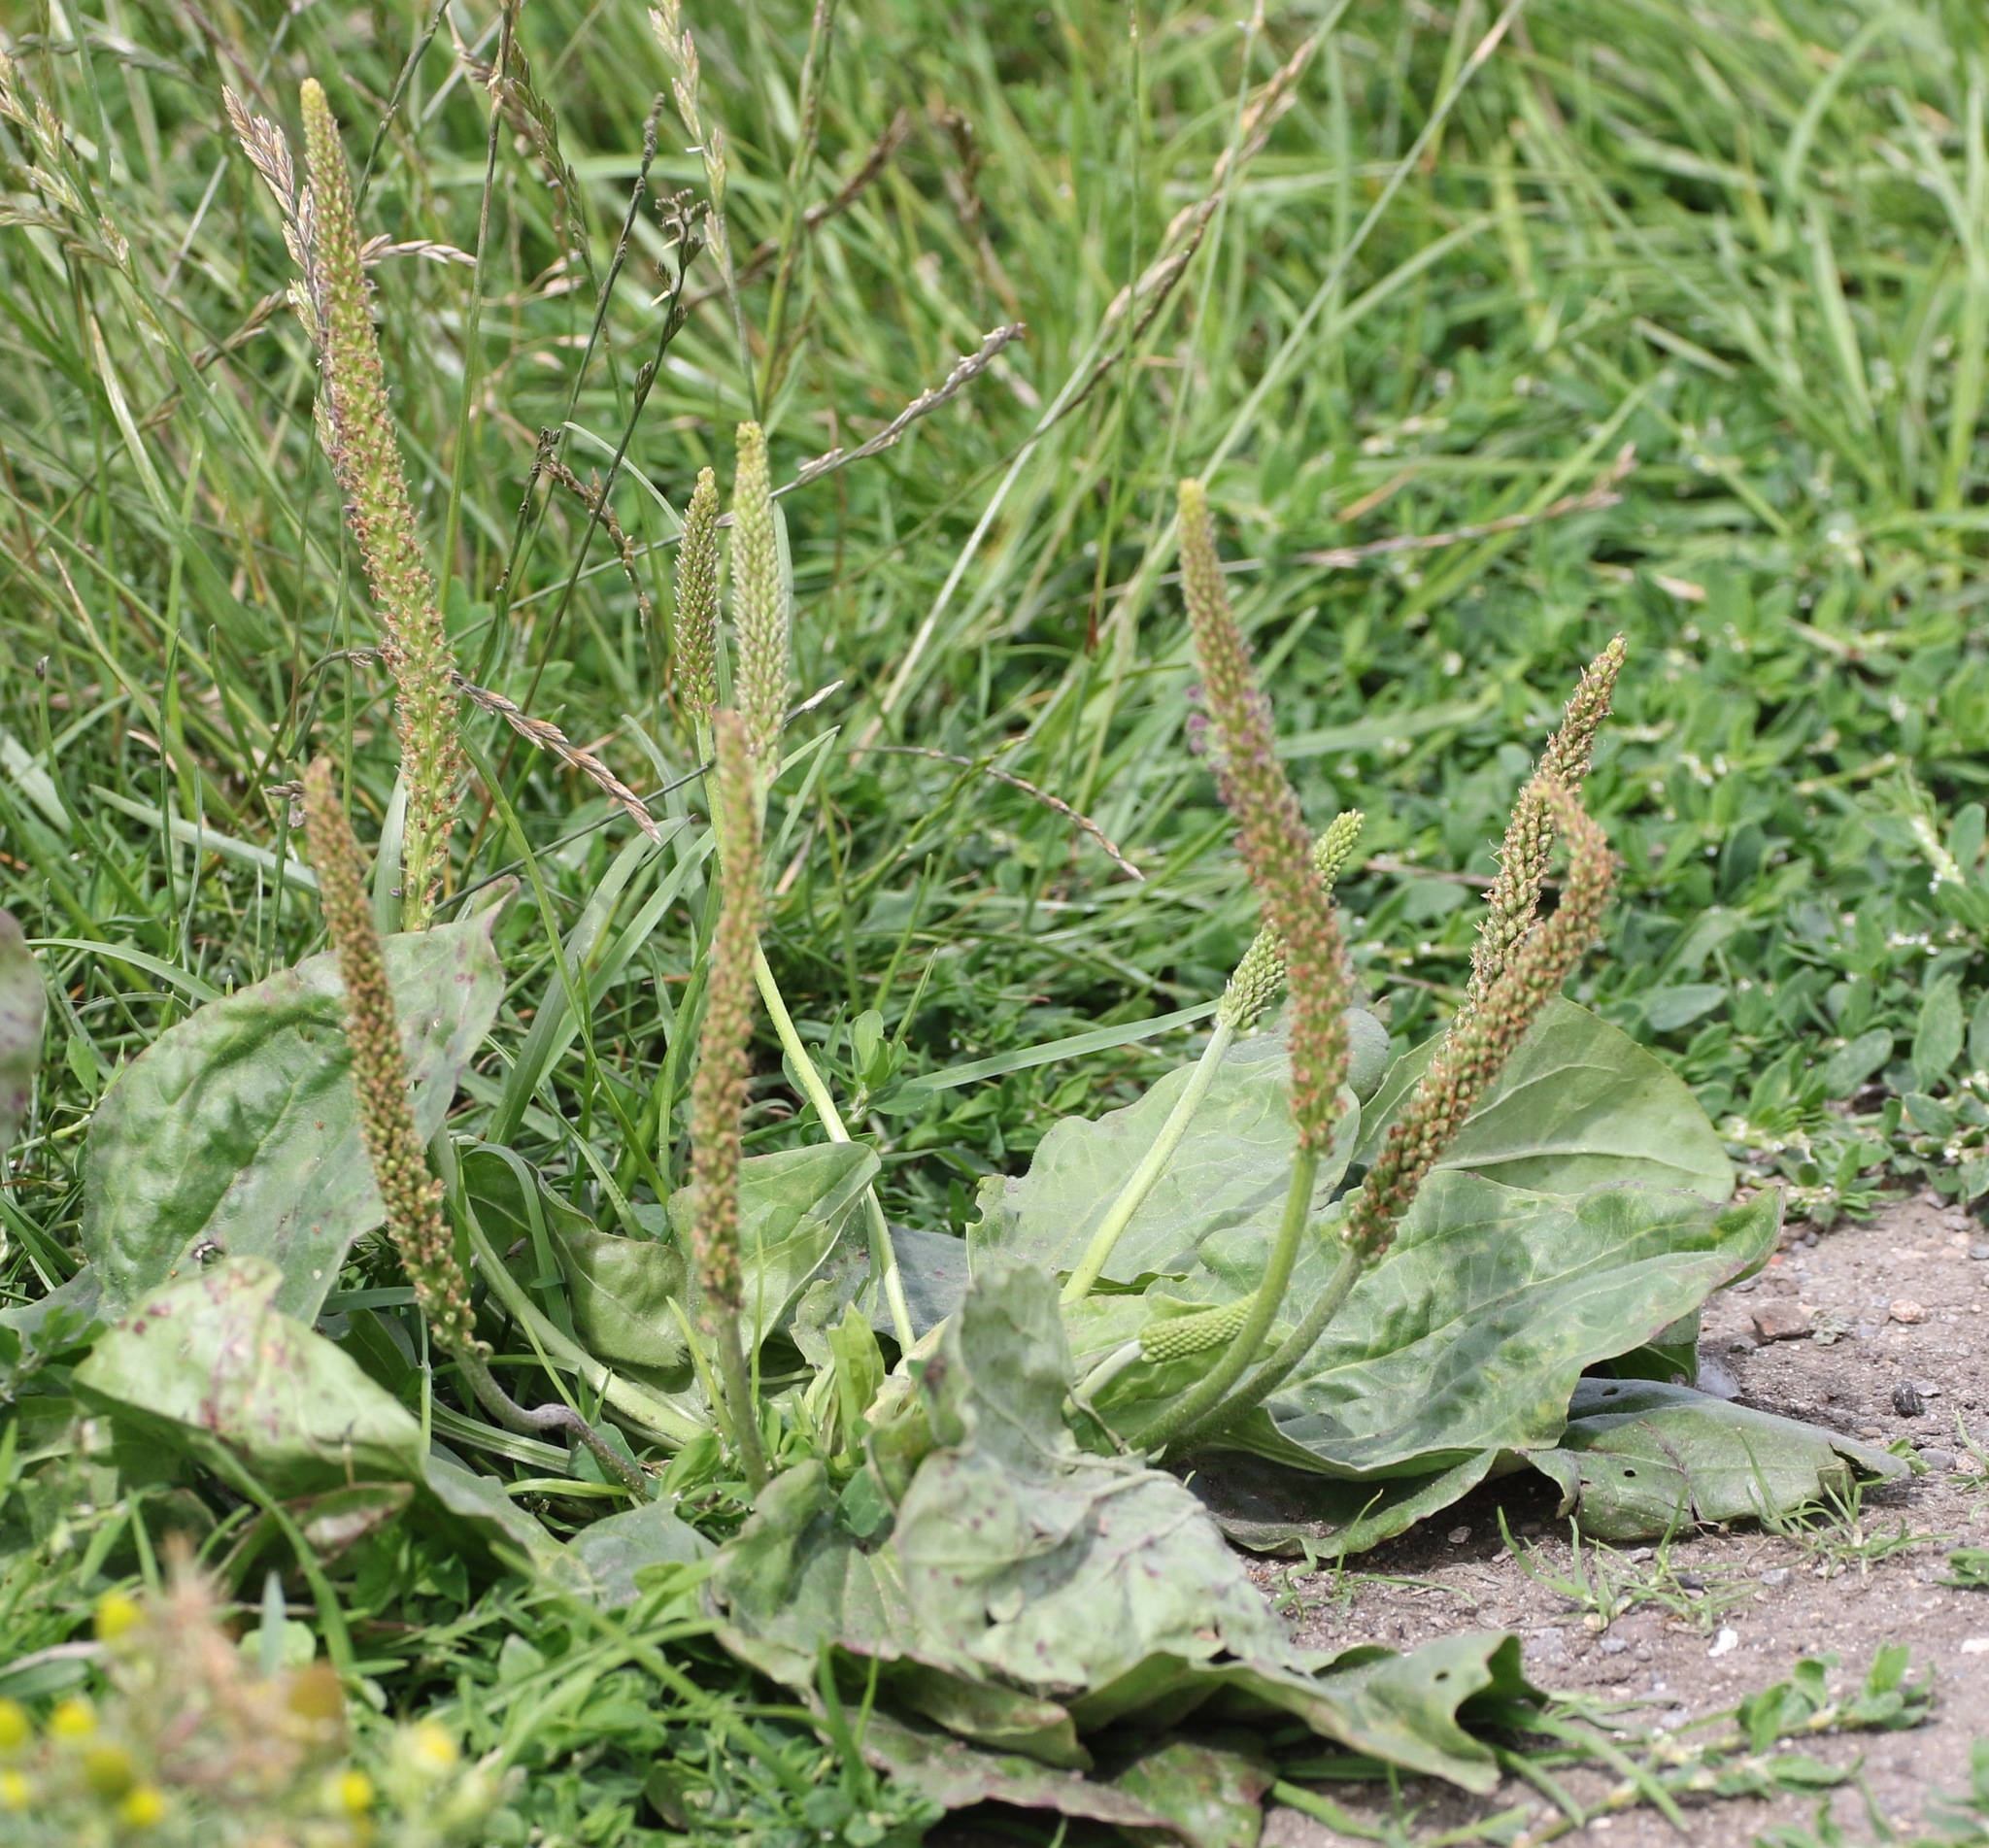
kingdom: Plantae
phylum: Tracheophyta
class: Magnoliopsida
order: Lamiales
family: Plantaginaceae
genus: Plantago
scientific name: Plantago major
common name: Common plantain
